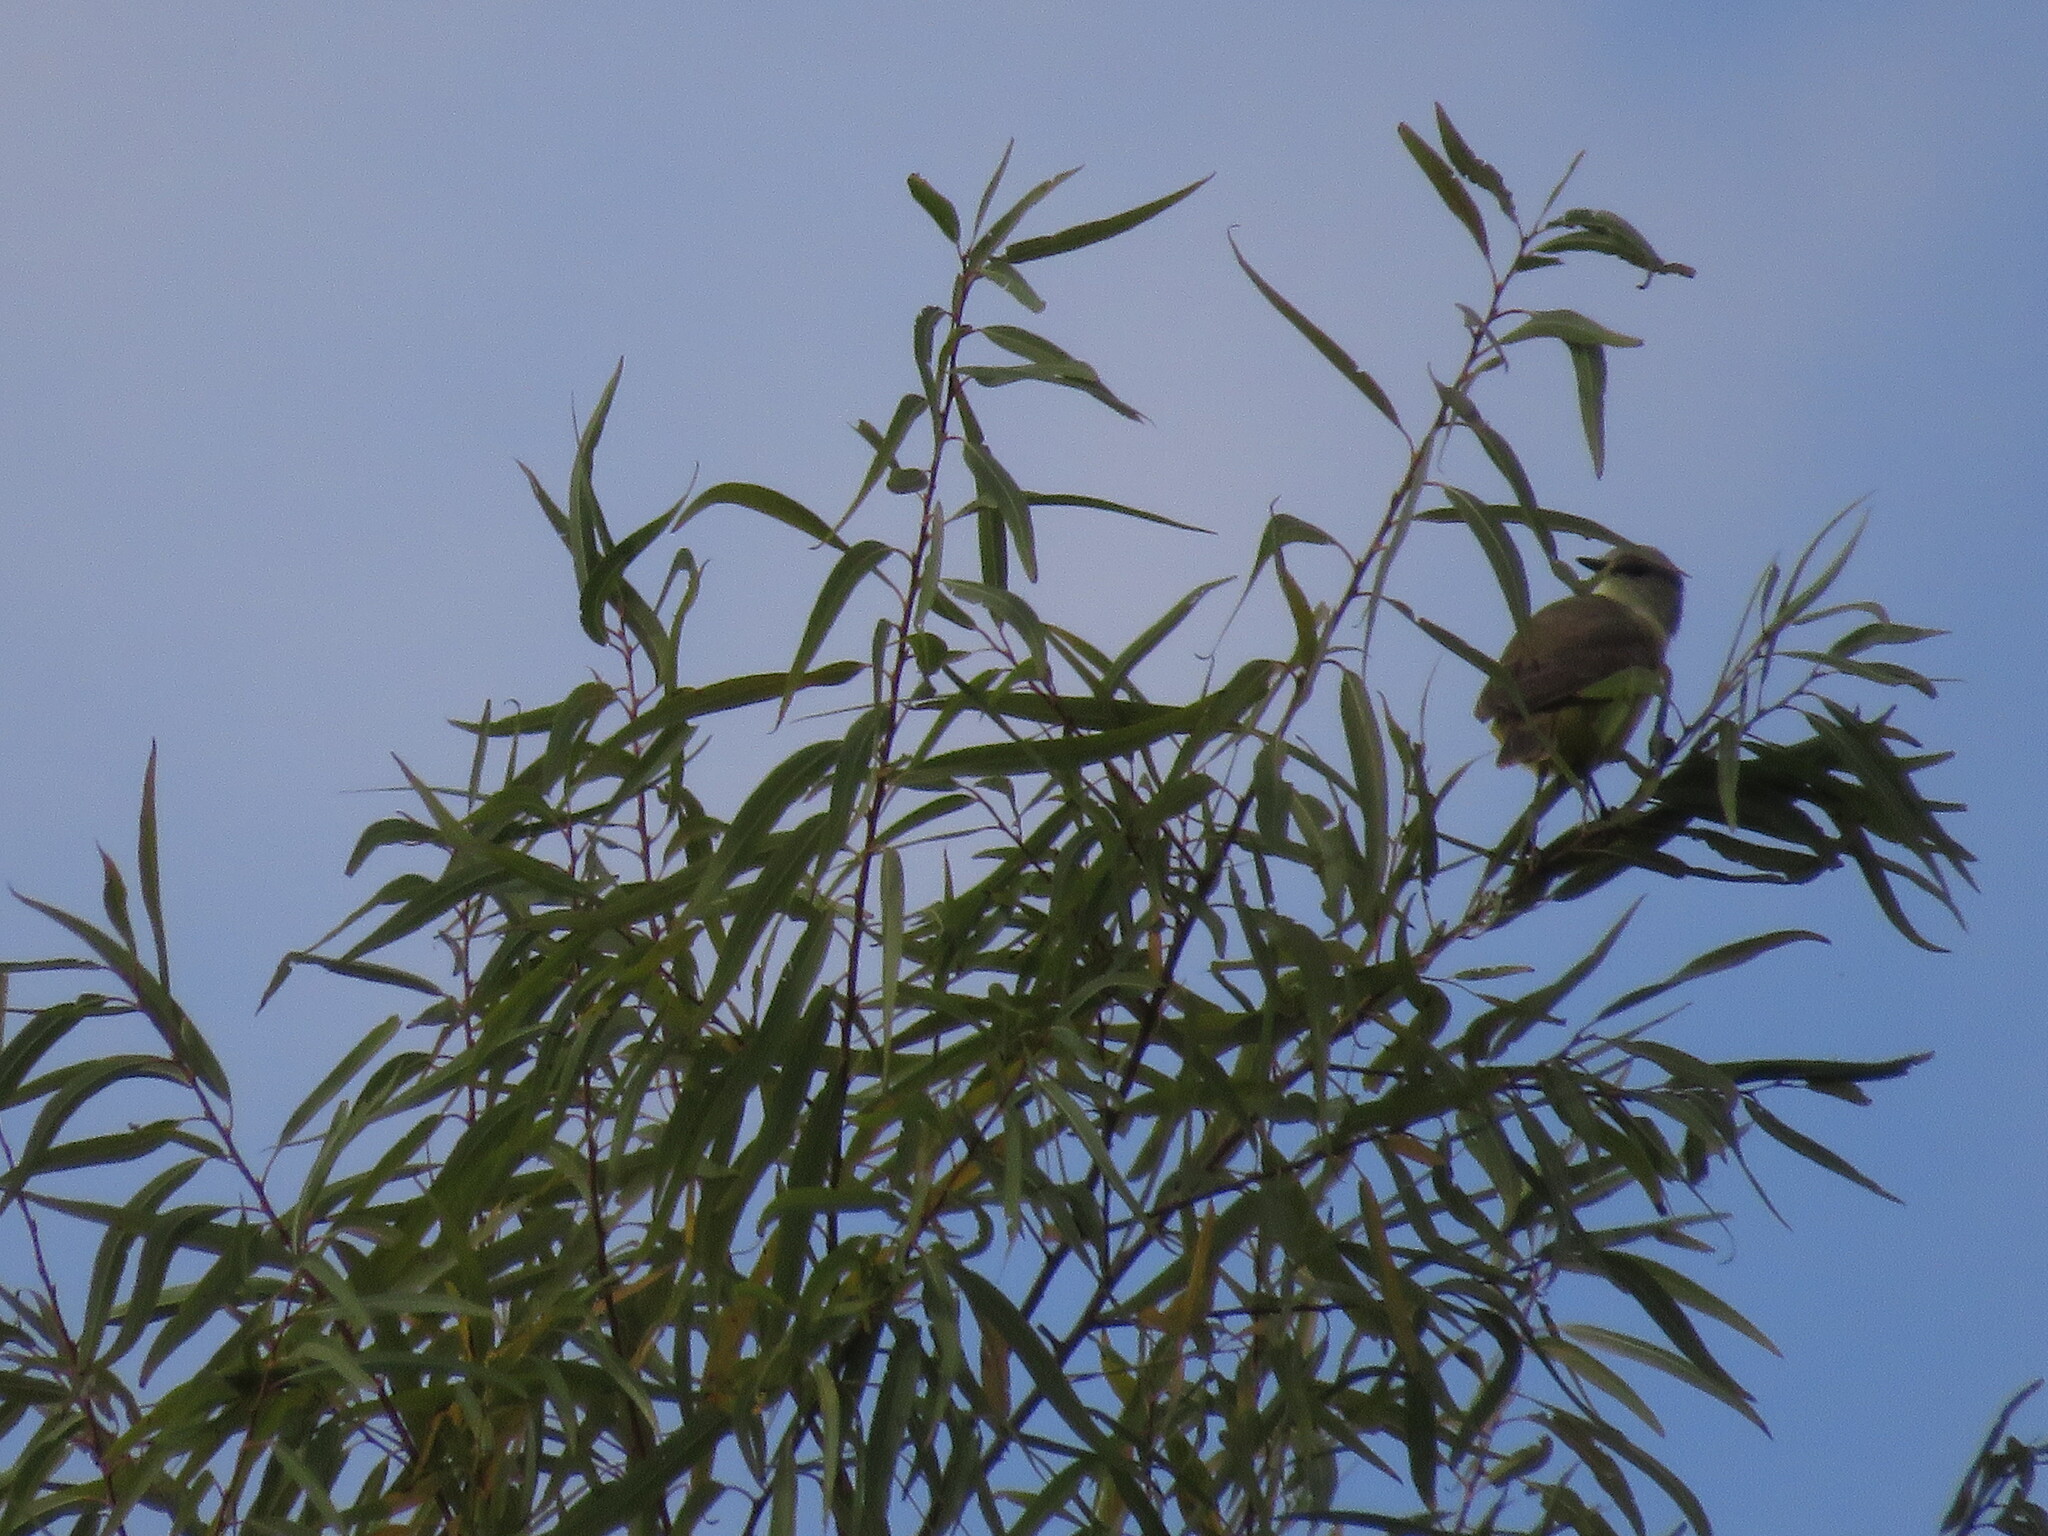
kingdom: Animalia
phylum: Chordata
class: Aves
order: Passeriformes
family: Tyrannidae
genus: Machetornis
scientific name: Machetornis rixosa
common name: Cattle tyrant
